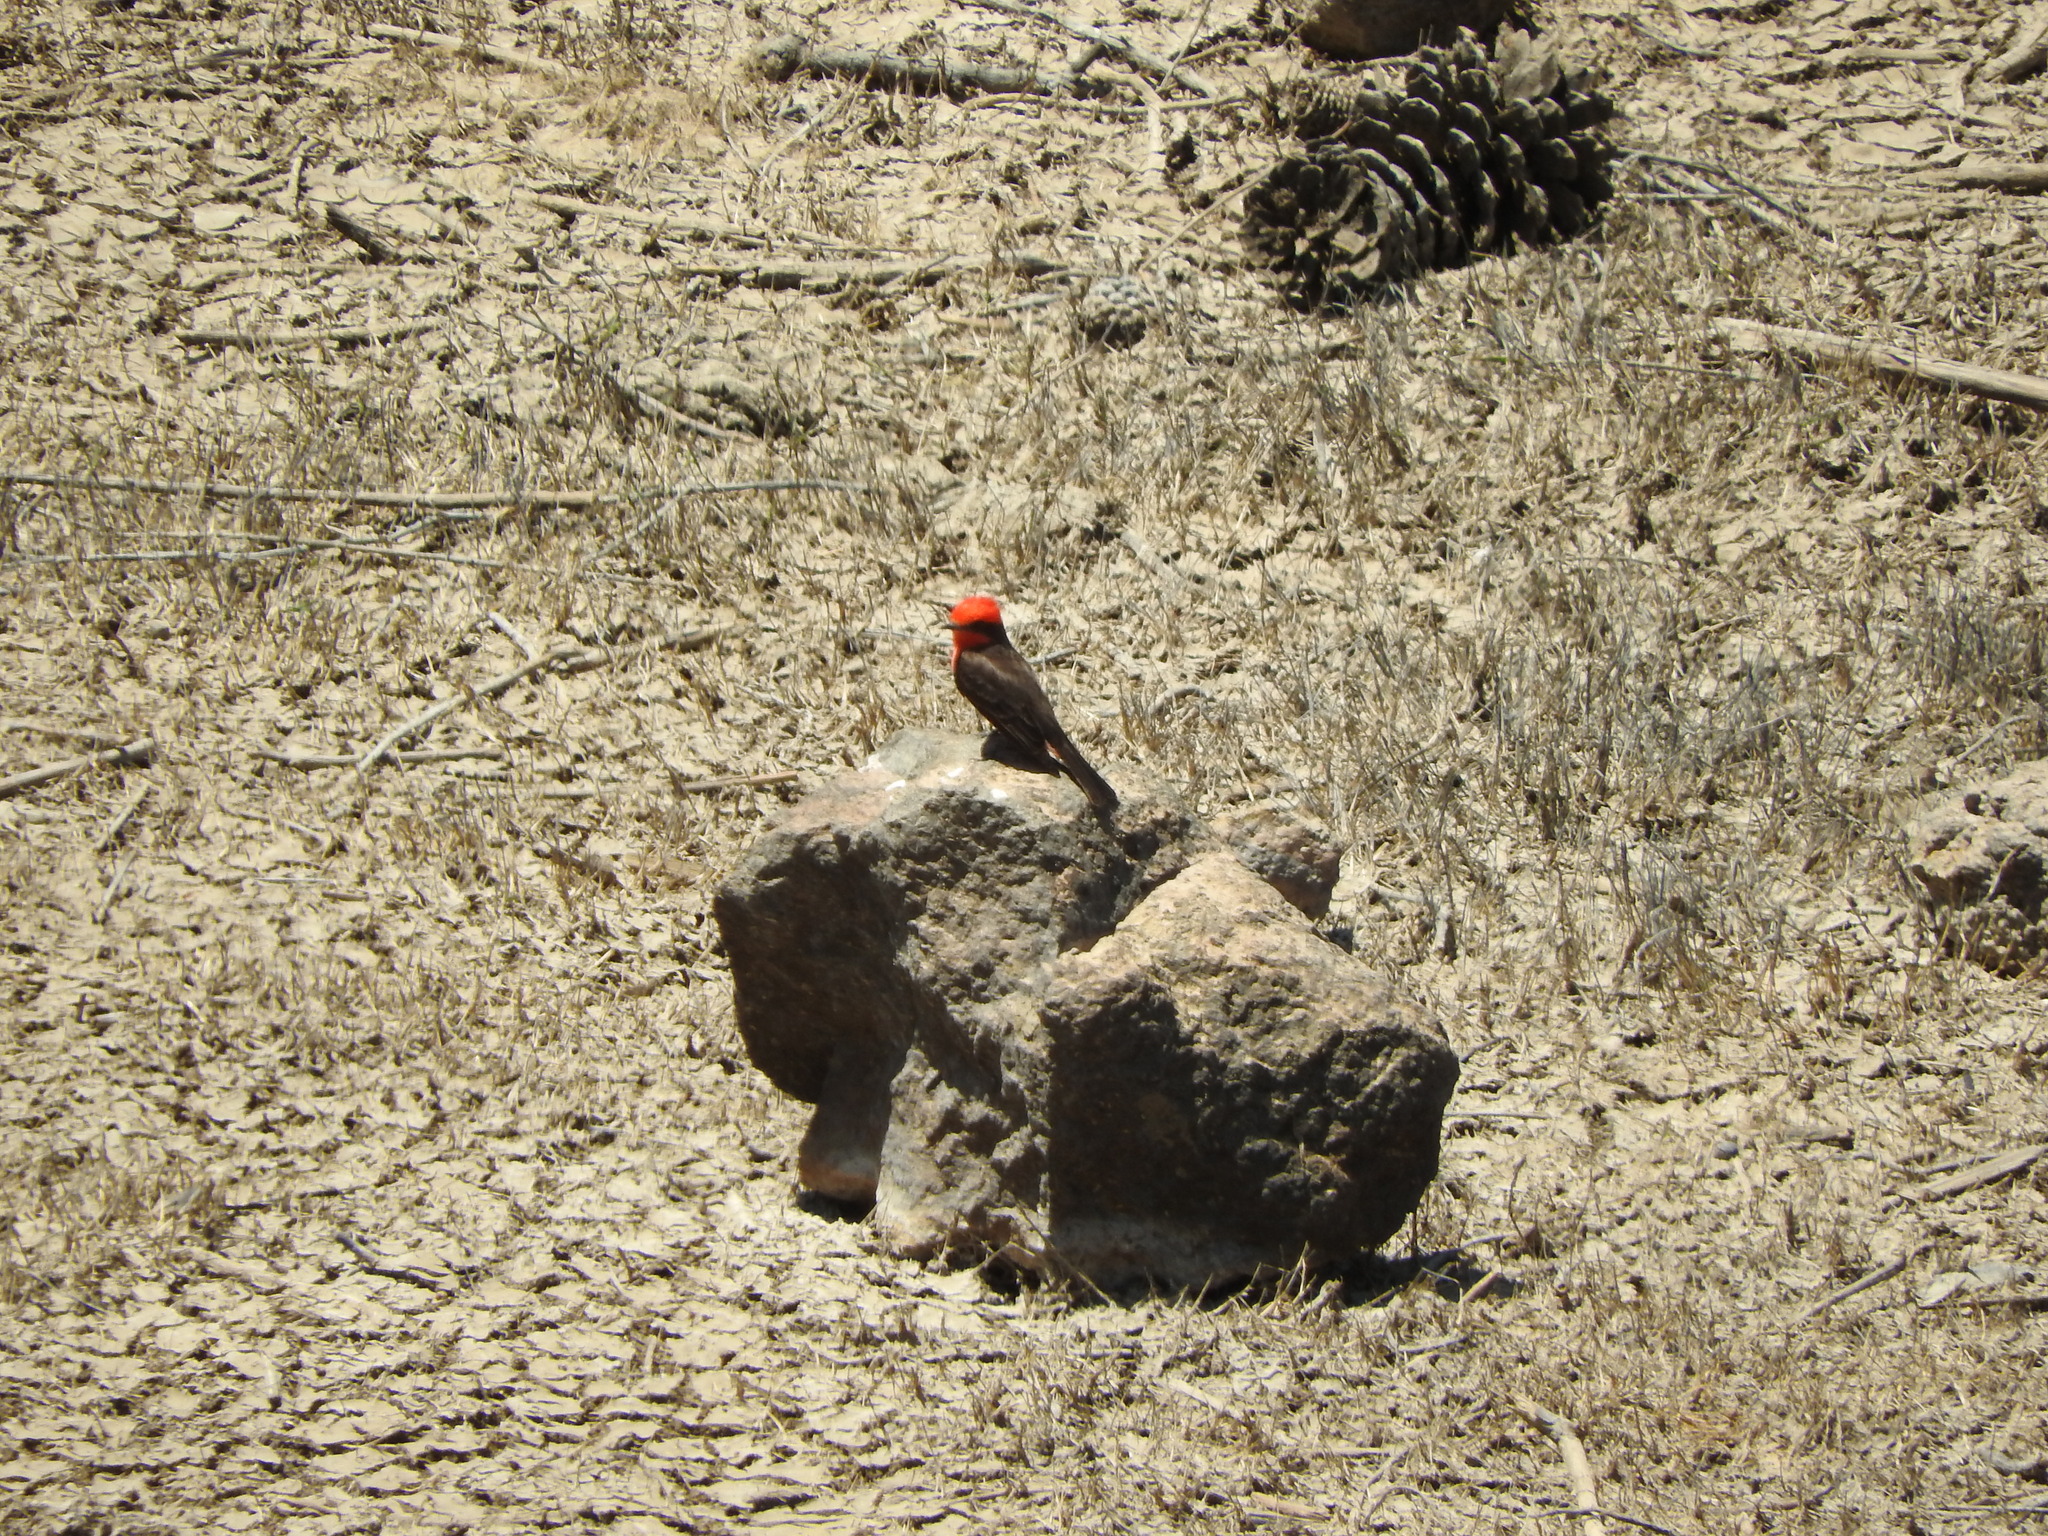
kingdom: Animalia
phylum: Chordata
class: Aves
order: Passeriformes
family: Tyrannidae
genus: Pyrocephalus
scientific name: Pyrocephalus rubinus
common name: Vermilion flycatcher
